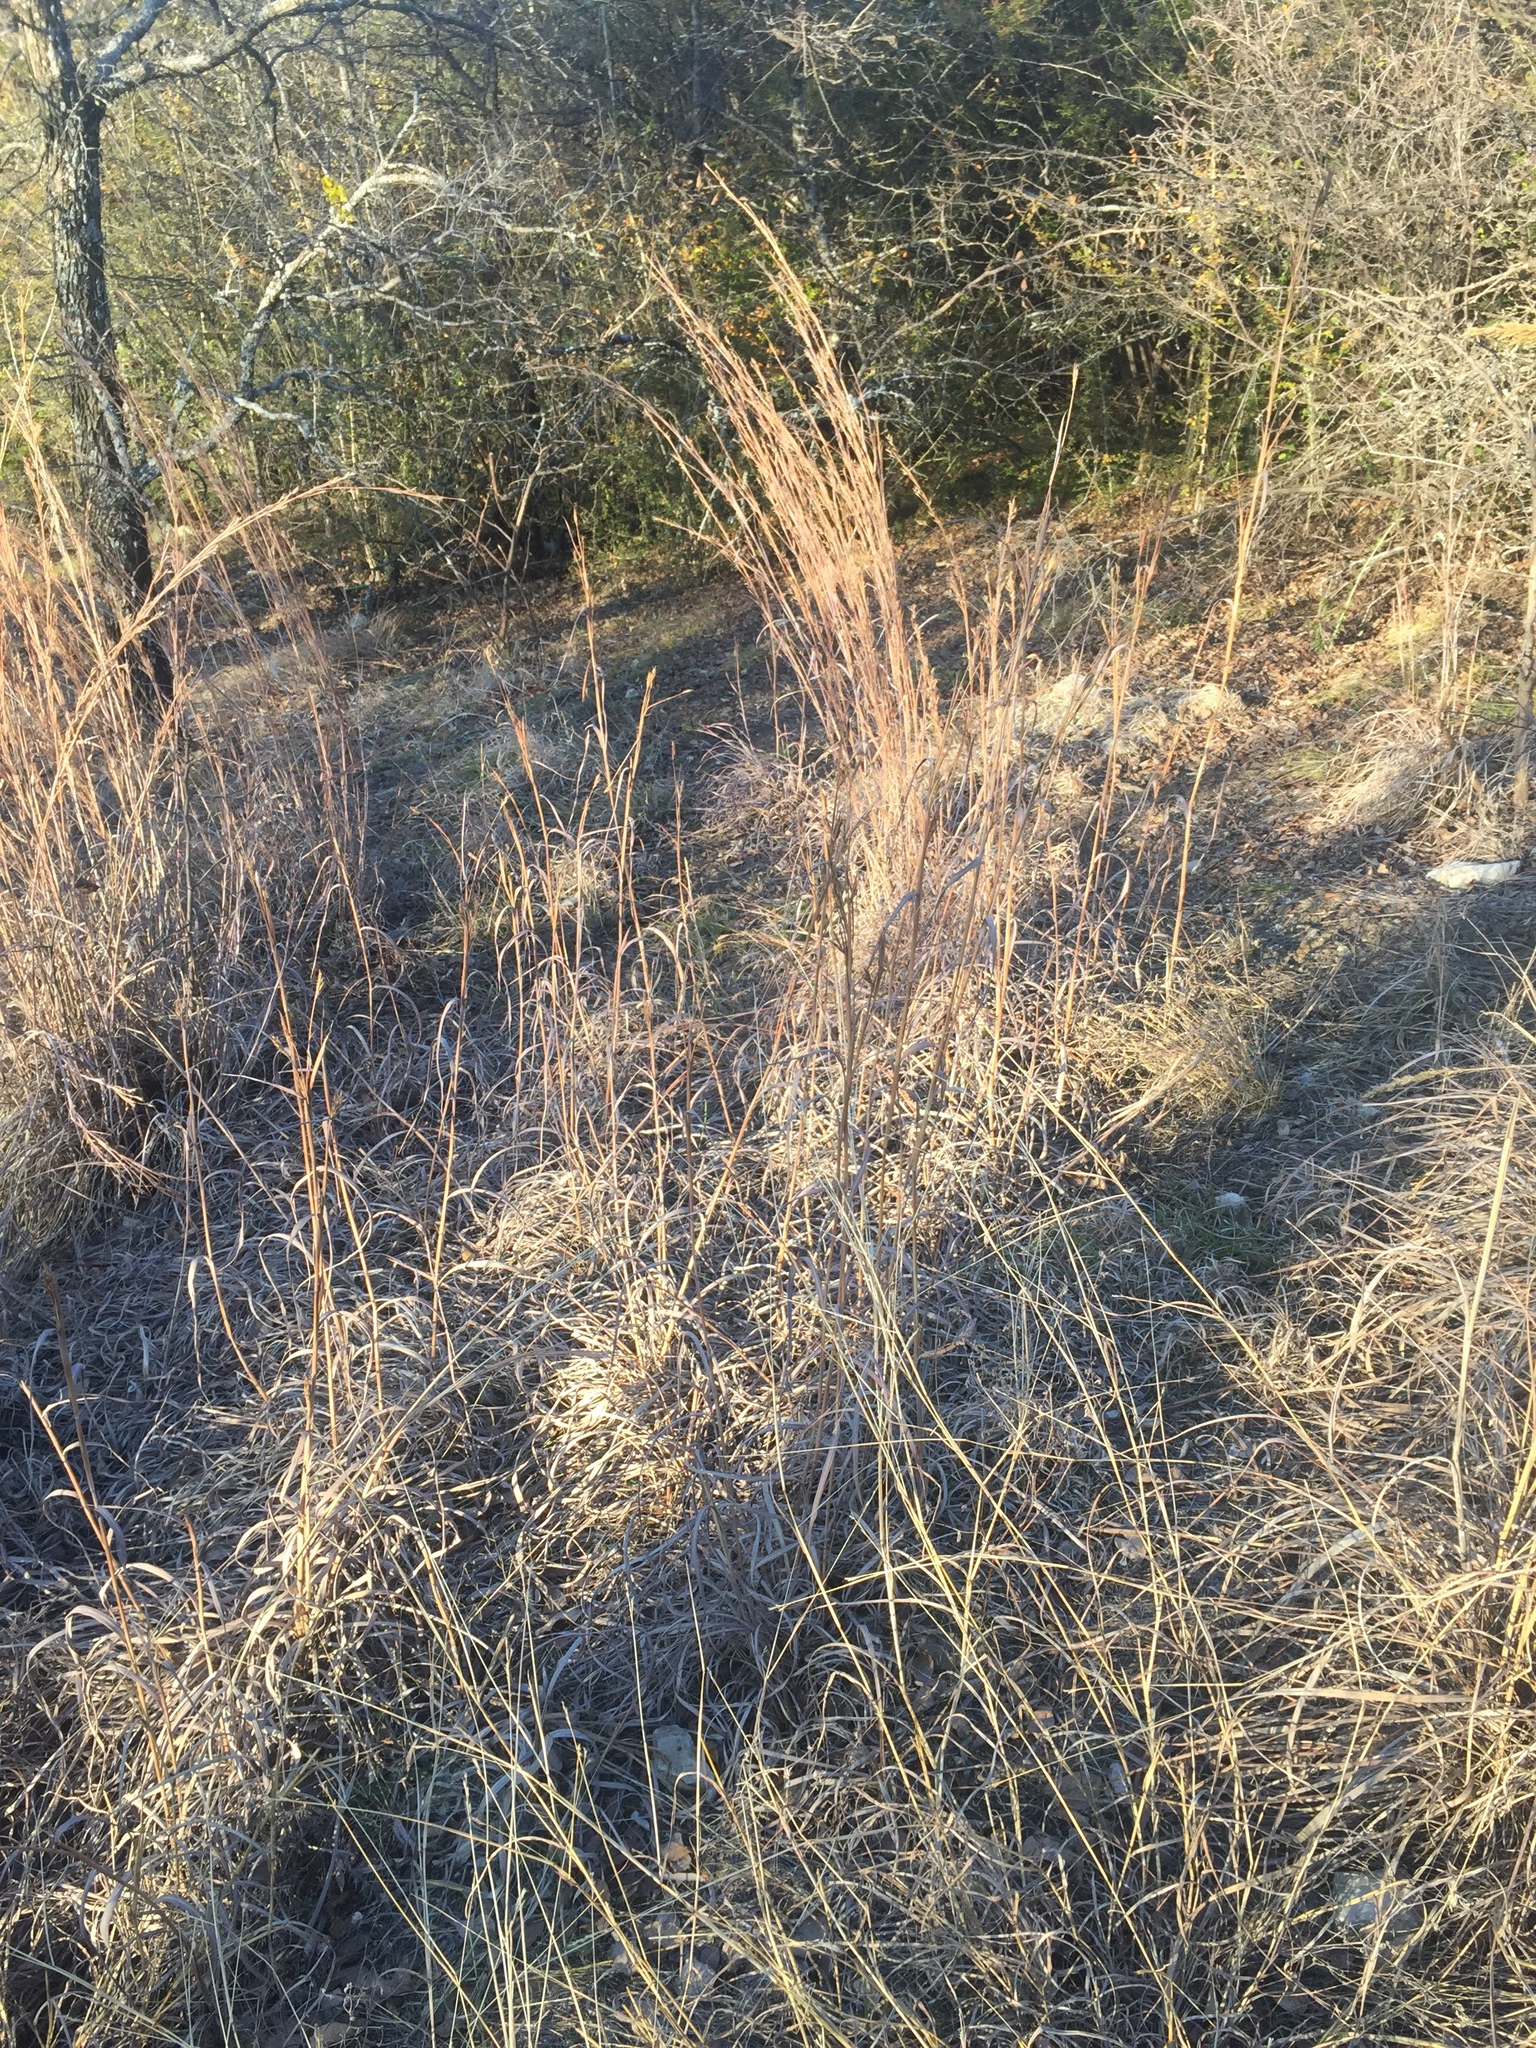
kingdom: Plantae
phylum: Tracheophyta
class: Liliopsida
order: Poales
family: Poaceae
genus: Andropogon
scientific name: Andropogon gerardi
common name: Big bluestem
